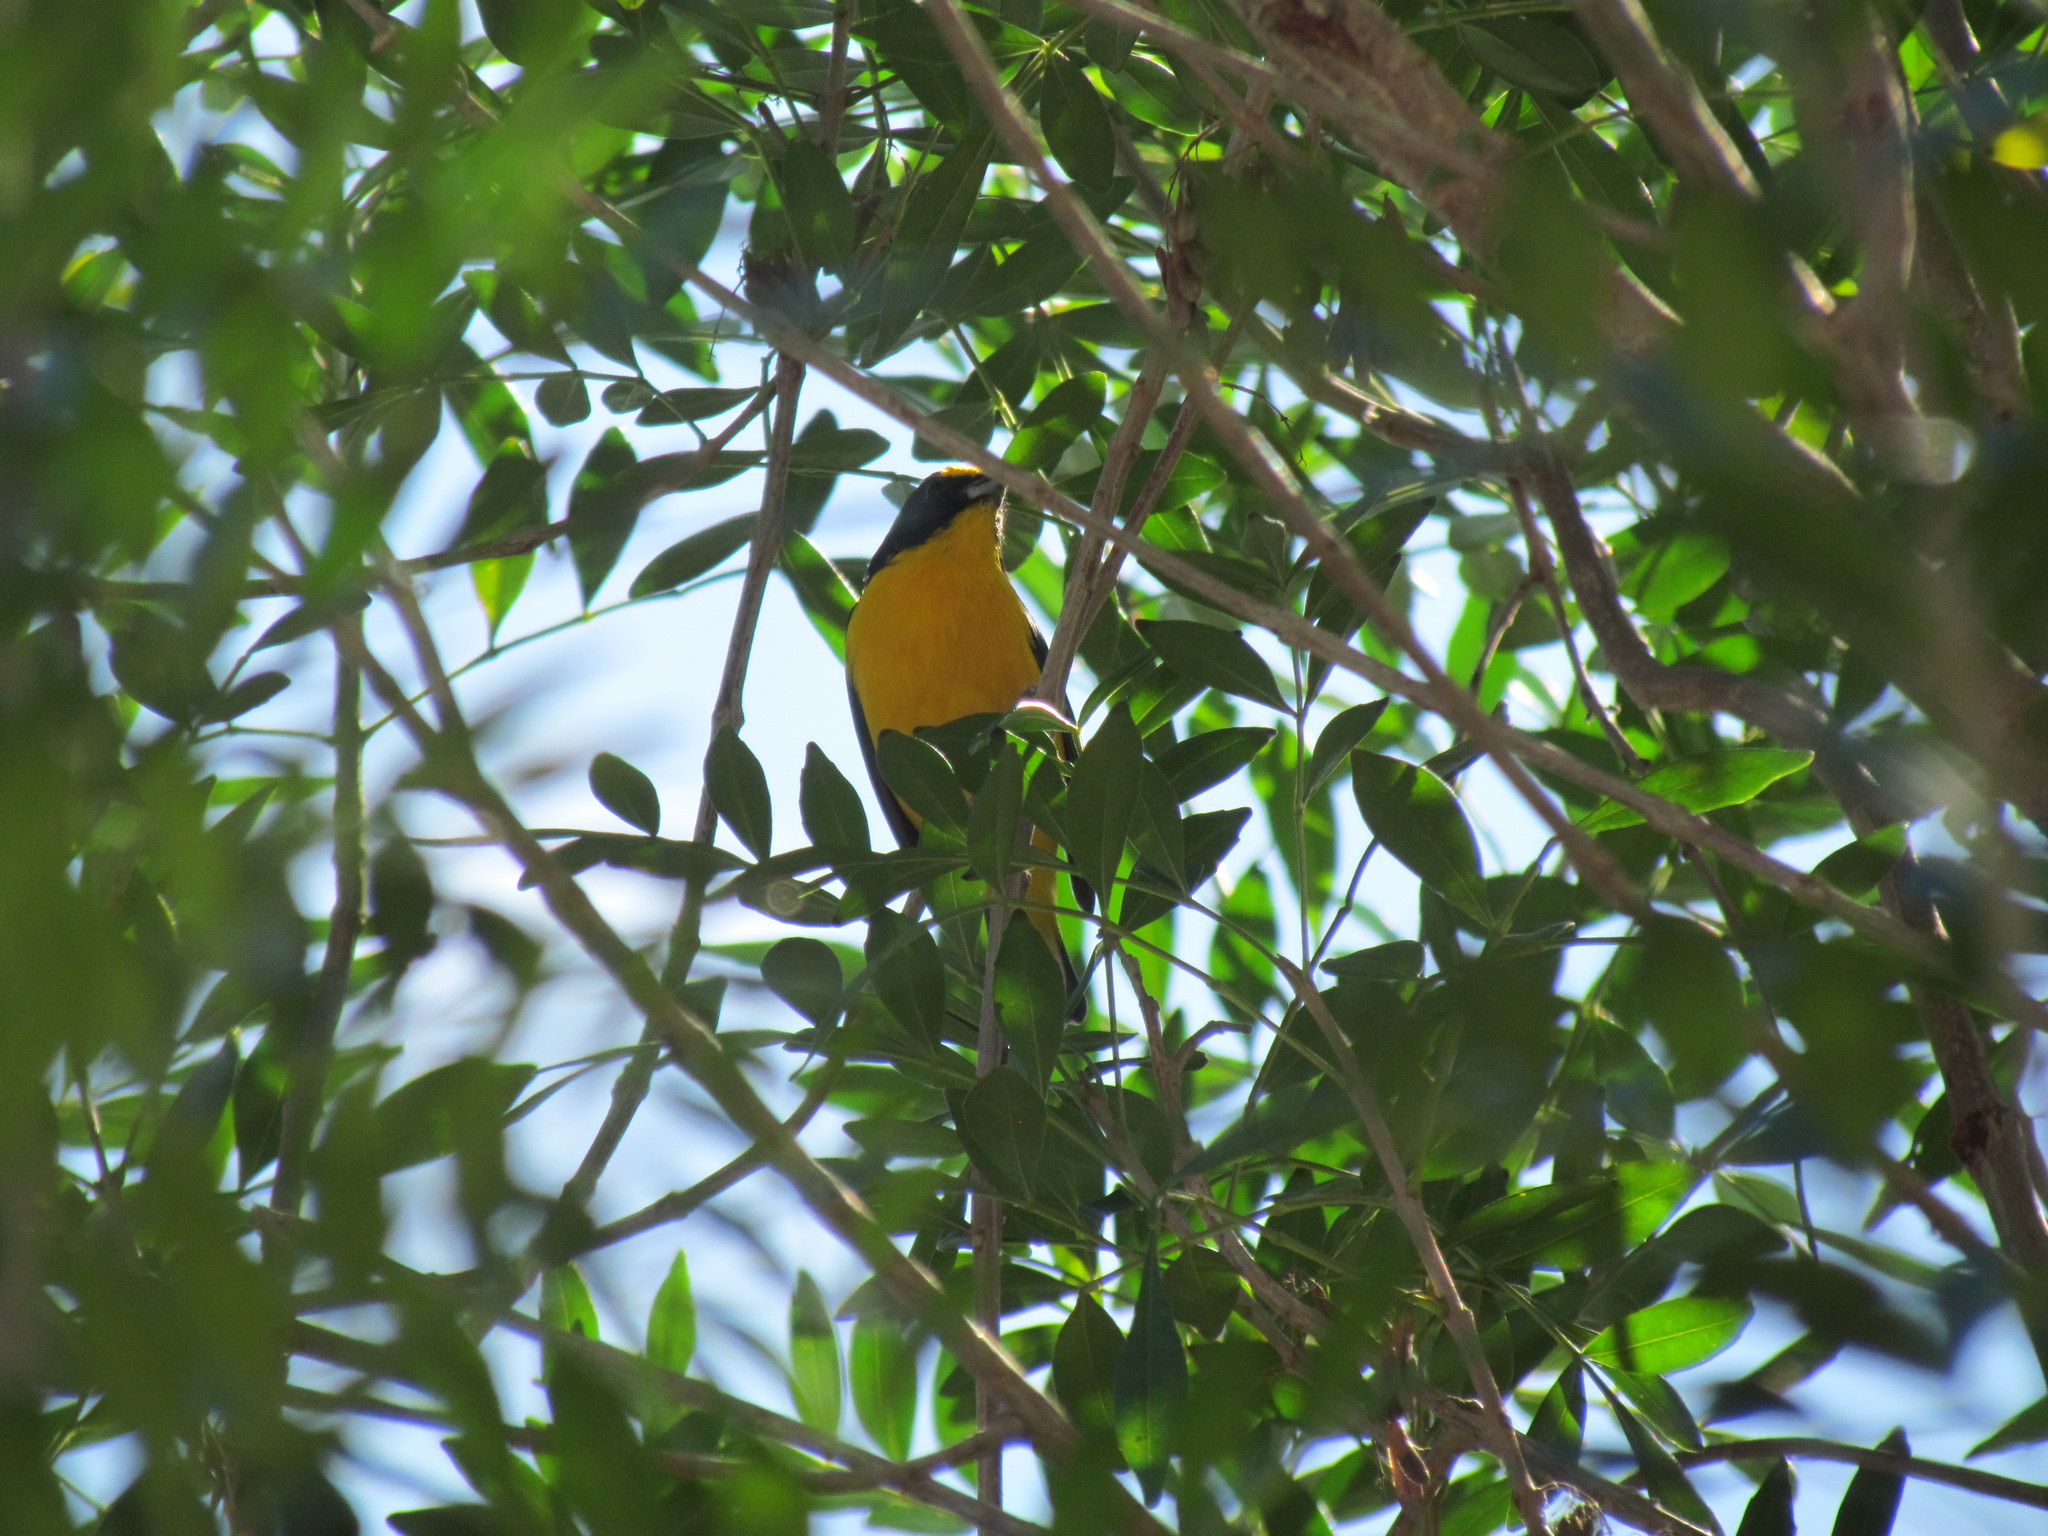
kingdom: Animalia
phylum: Chordata
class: Aves
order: Passeriformes
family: Fringillidae
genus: Euphonia
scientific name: Euphonia hirundinacea
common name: Yellow-throated euphonia
